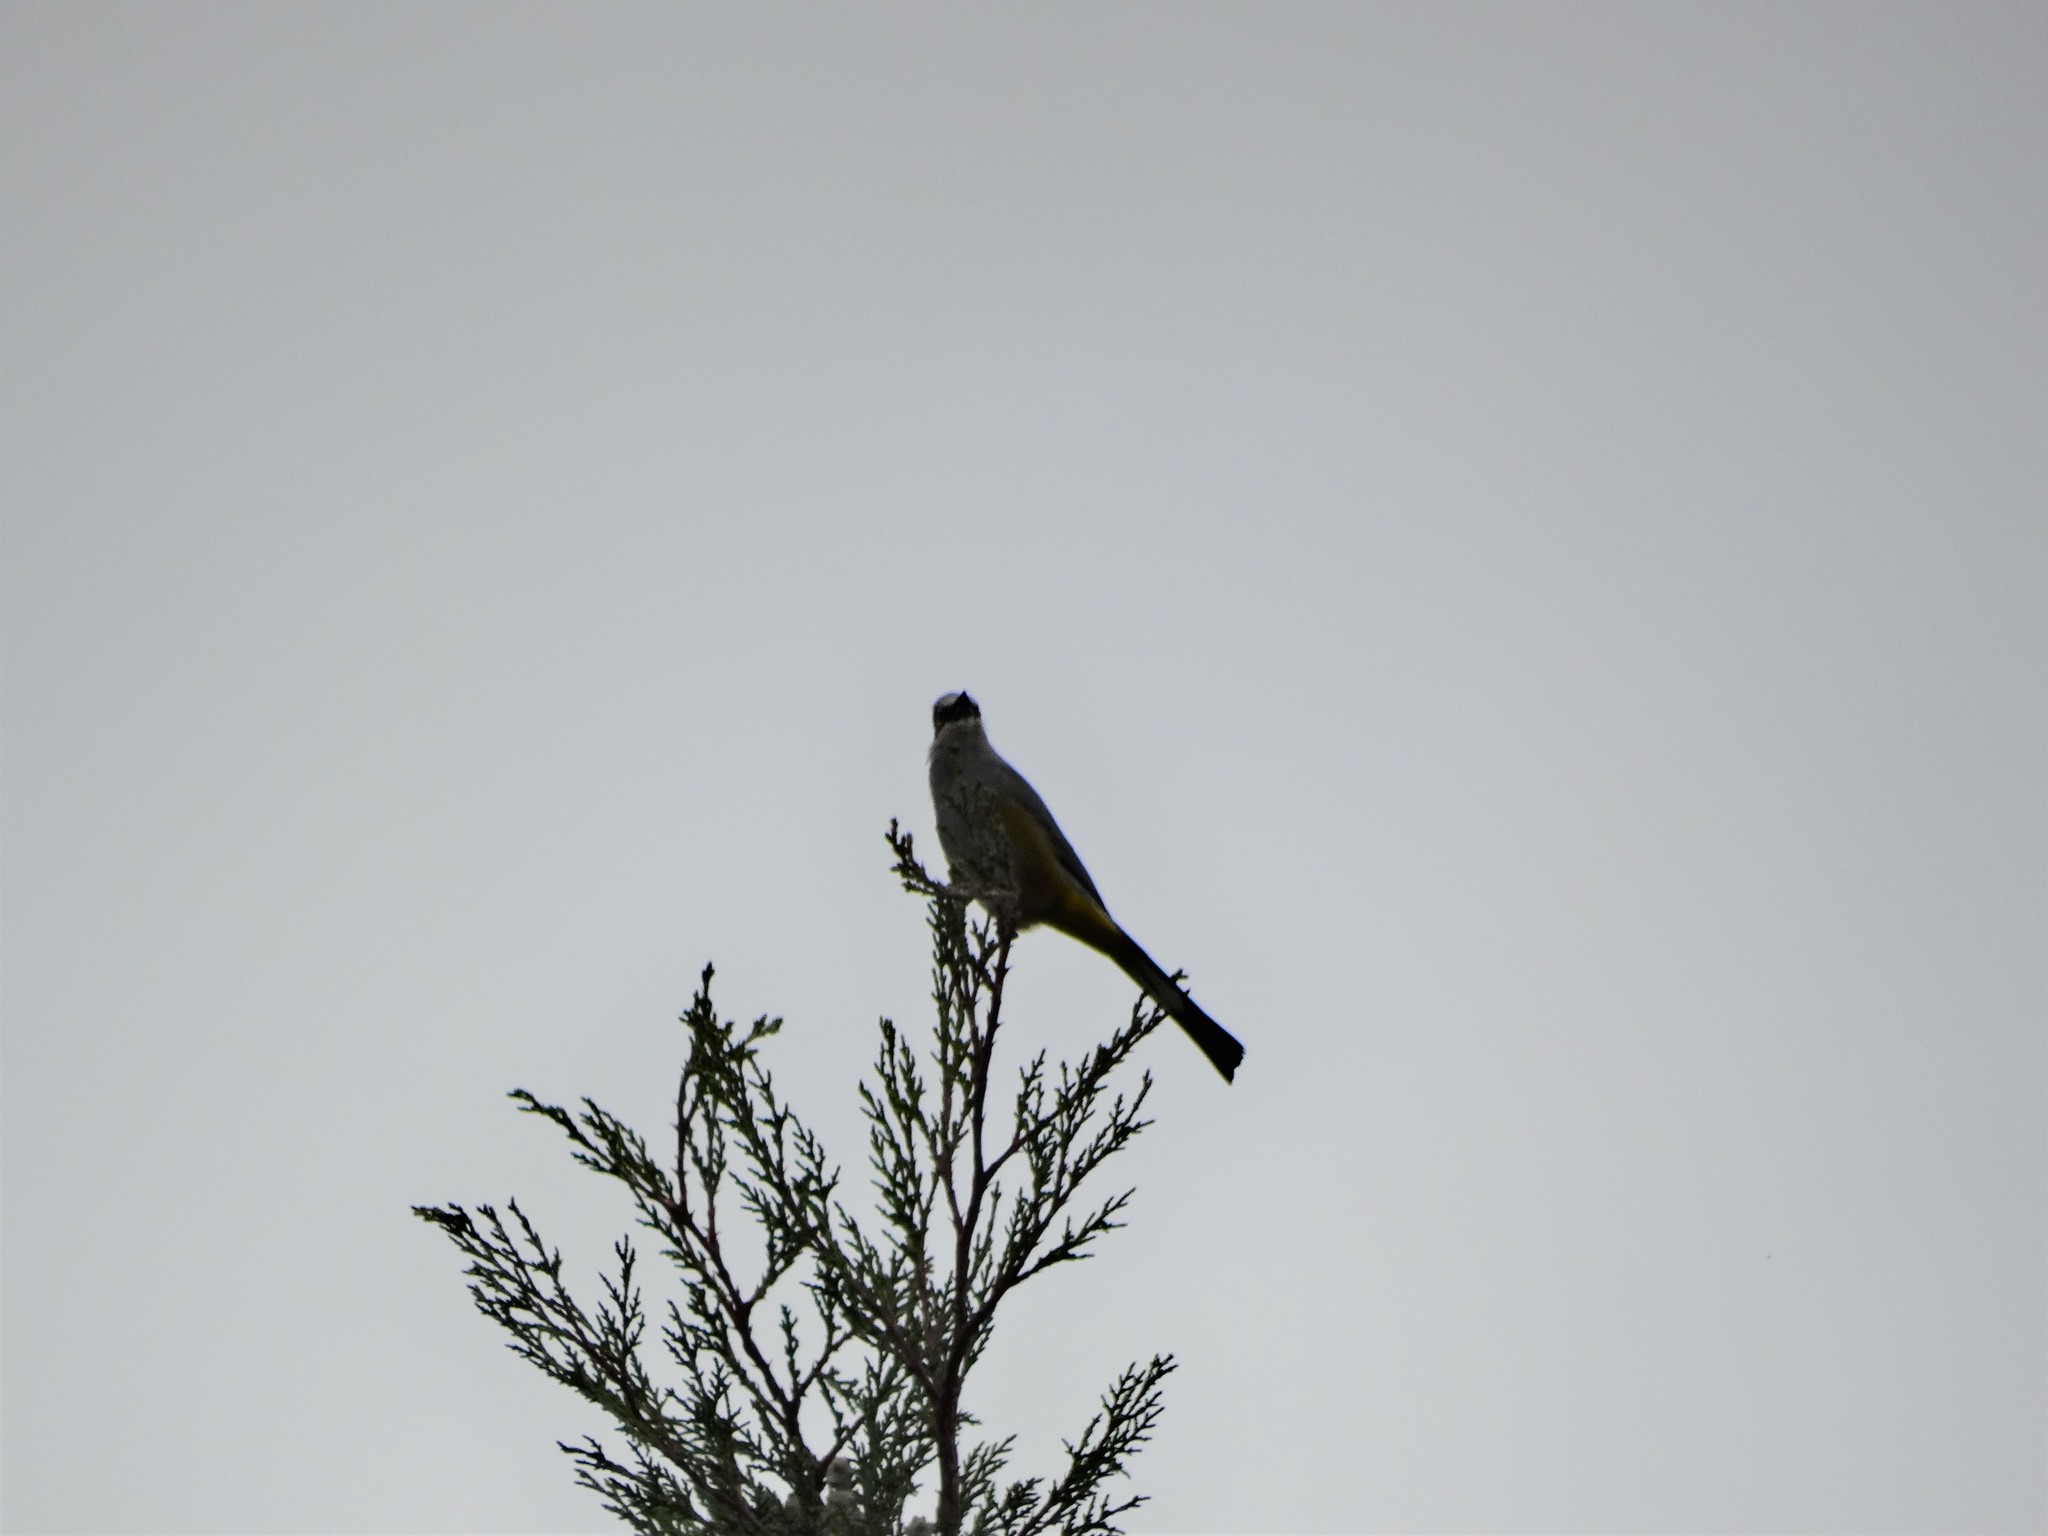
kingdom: Animalia
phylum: Chordata
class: Aves
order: Passeriformes
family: Ptilogonatidae
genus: Ptilogonys
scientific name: Ptilogonys cinereus
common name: Gray silky-flycatcher
